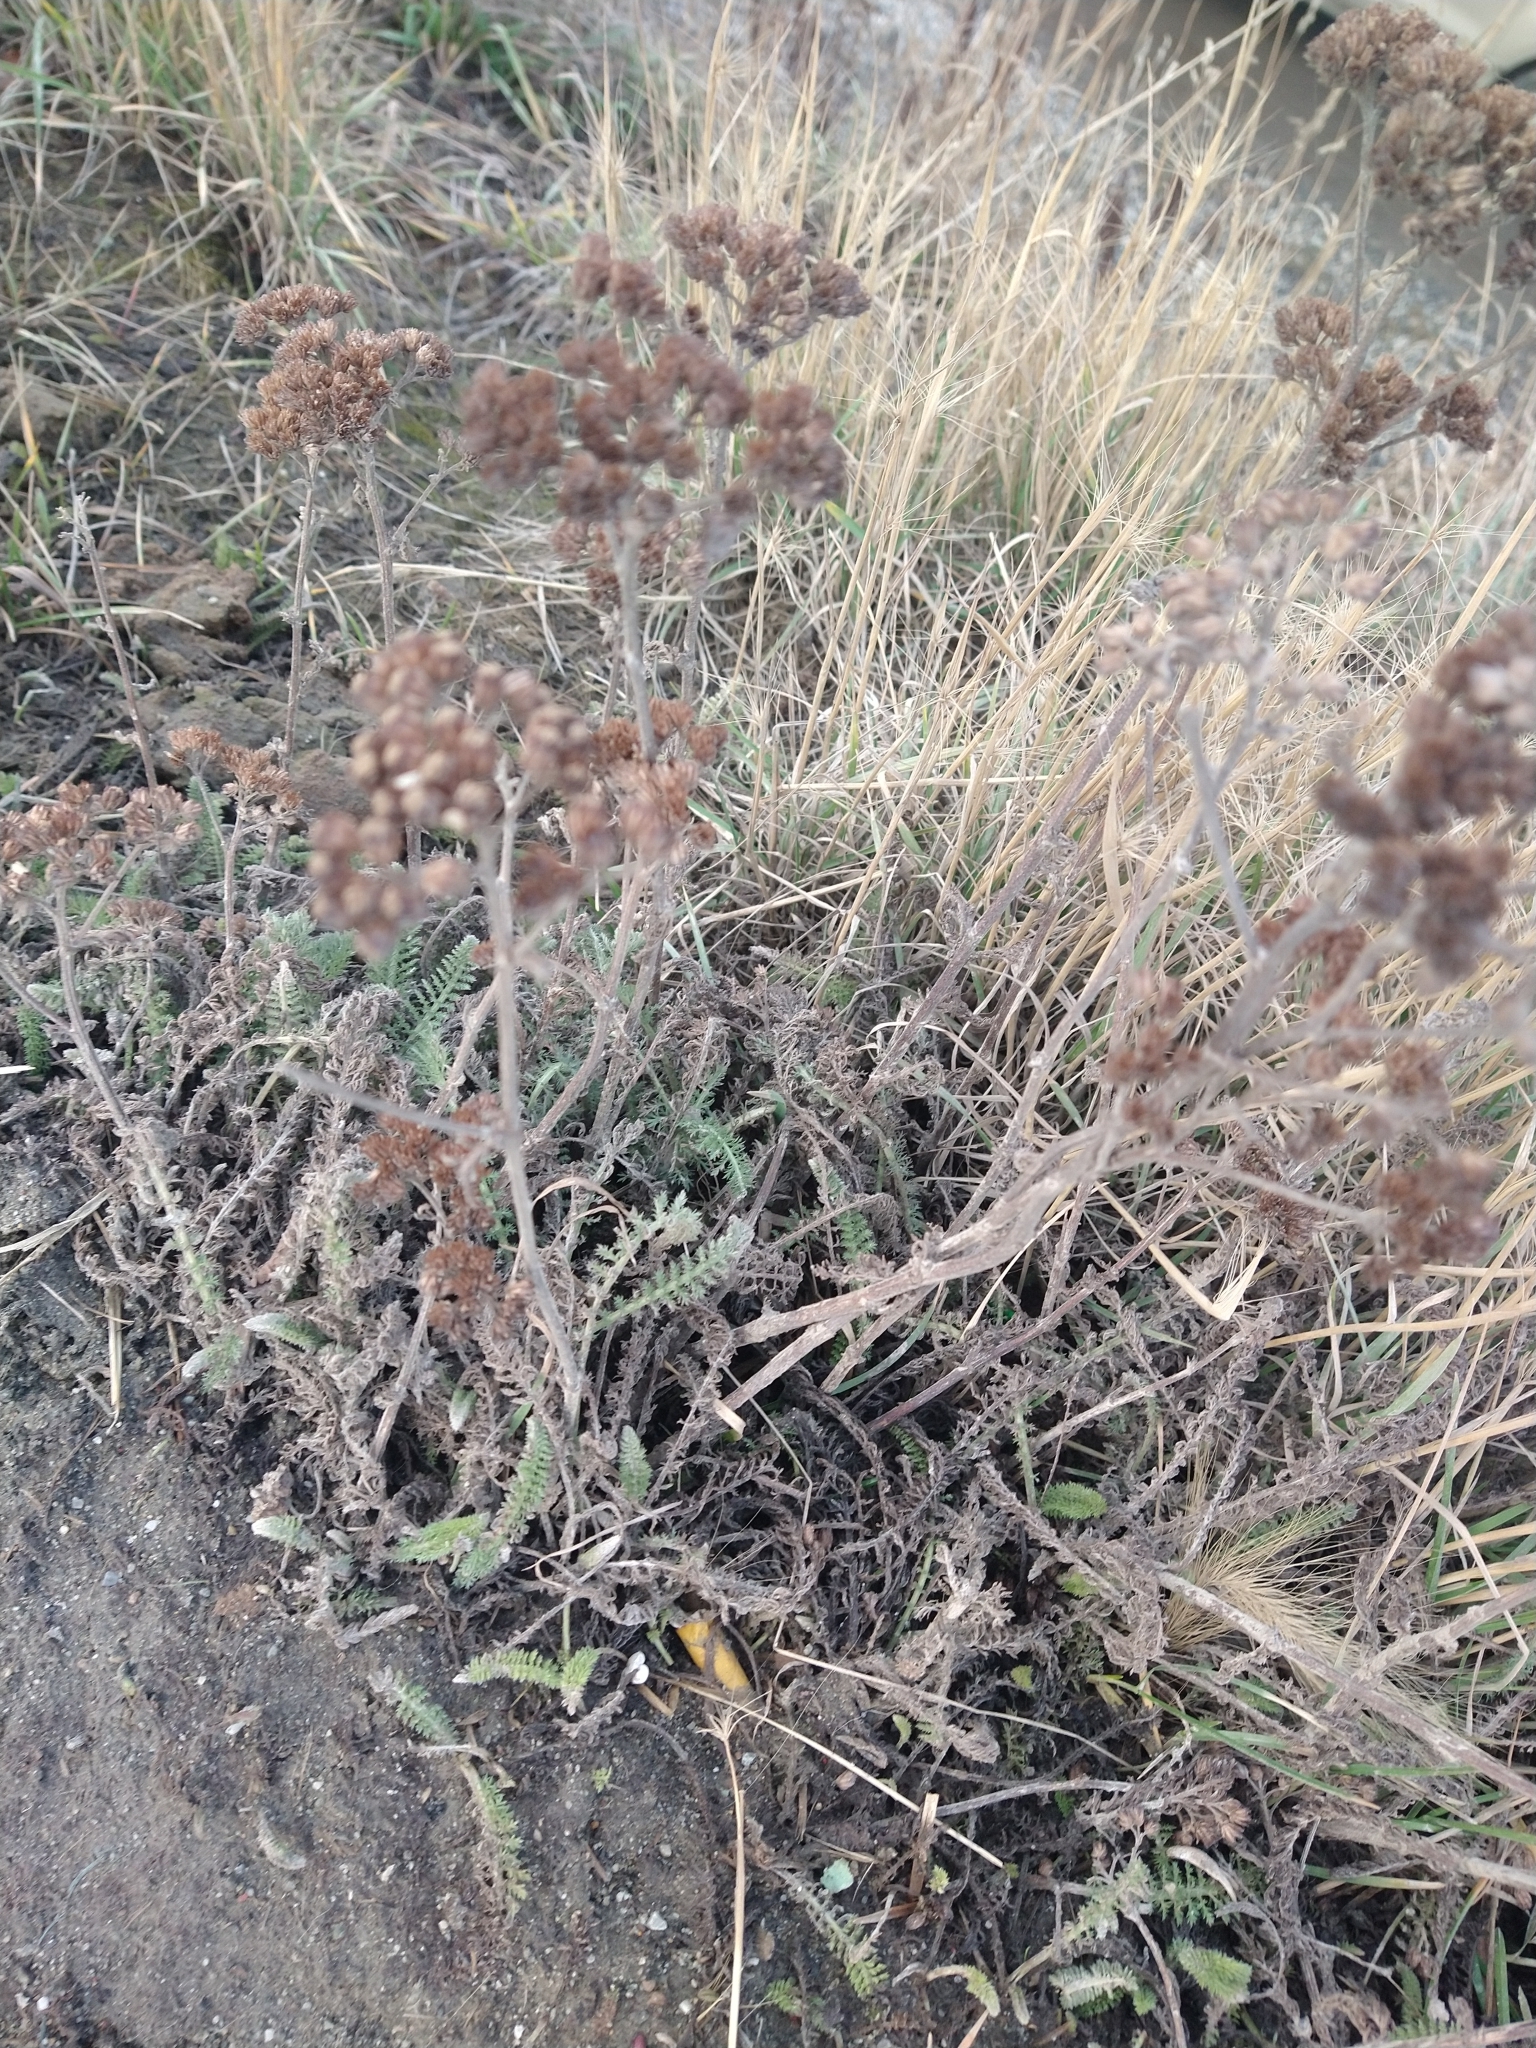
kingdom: Plantae
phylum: Tracheophyta
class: Magnoliopsida
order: Asterales
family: Asteraceae
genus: Achillea
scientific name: Achillea millefolium
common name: Yarrow
